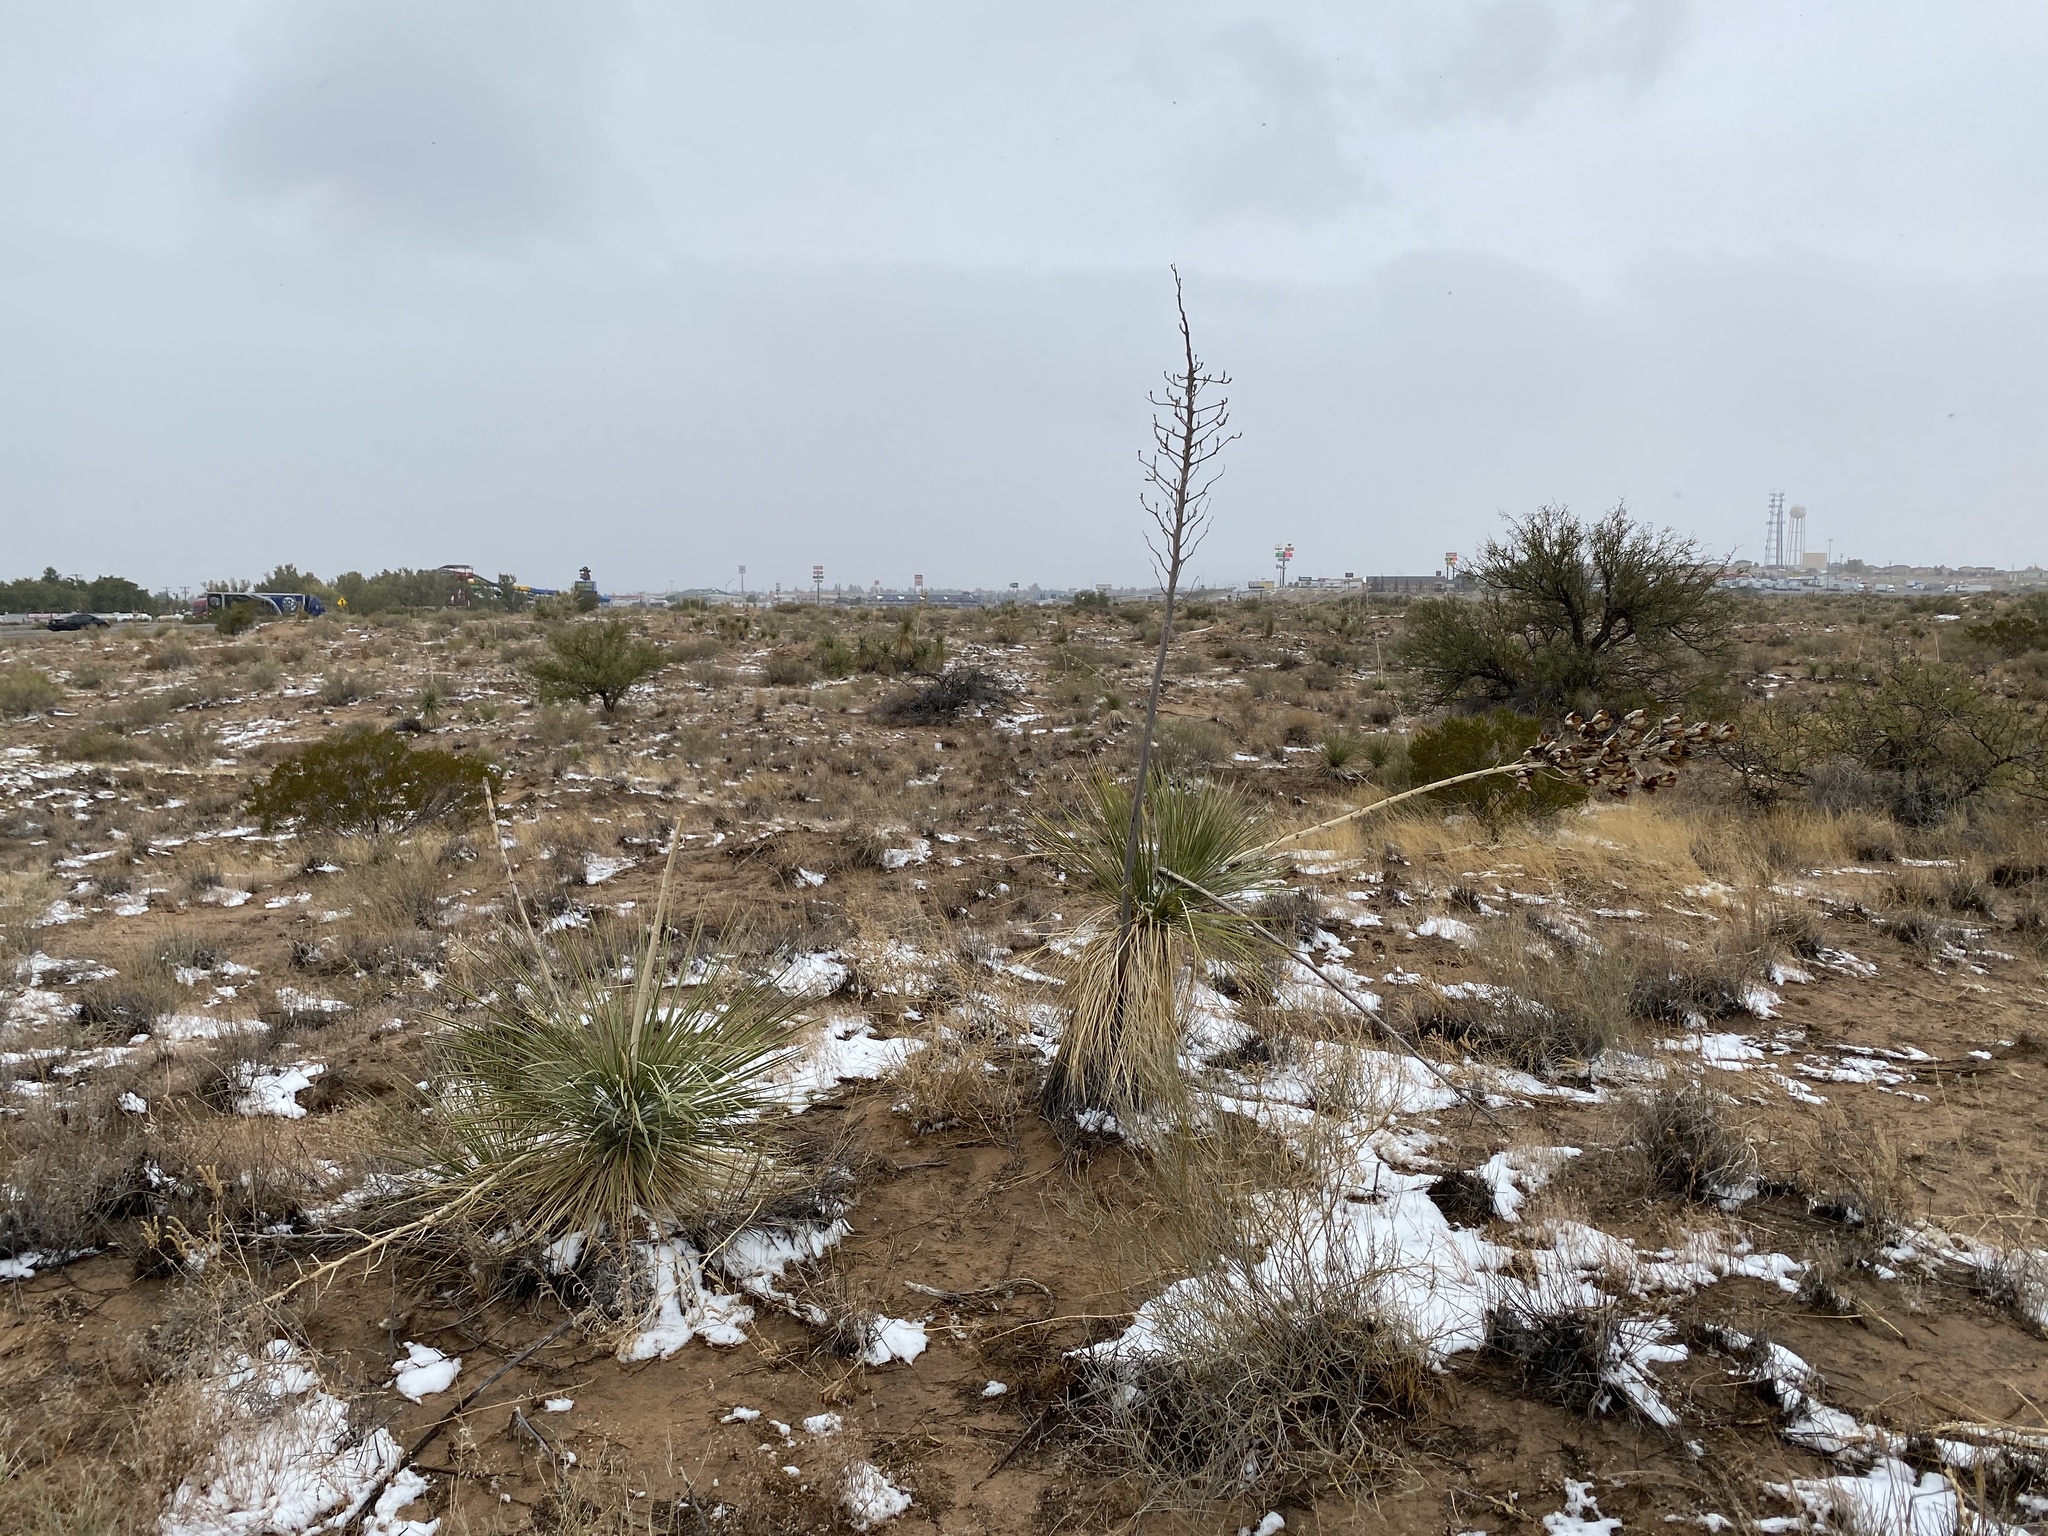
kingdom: Plantae
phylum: Tracheophyta
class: Liliopsida
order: Asparagales
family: Asparagaceae
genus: Yucca
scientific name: Yucca elata
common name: Palmella
